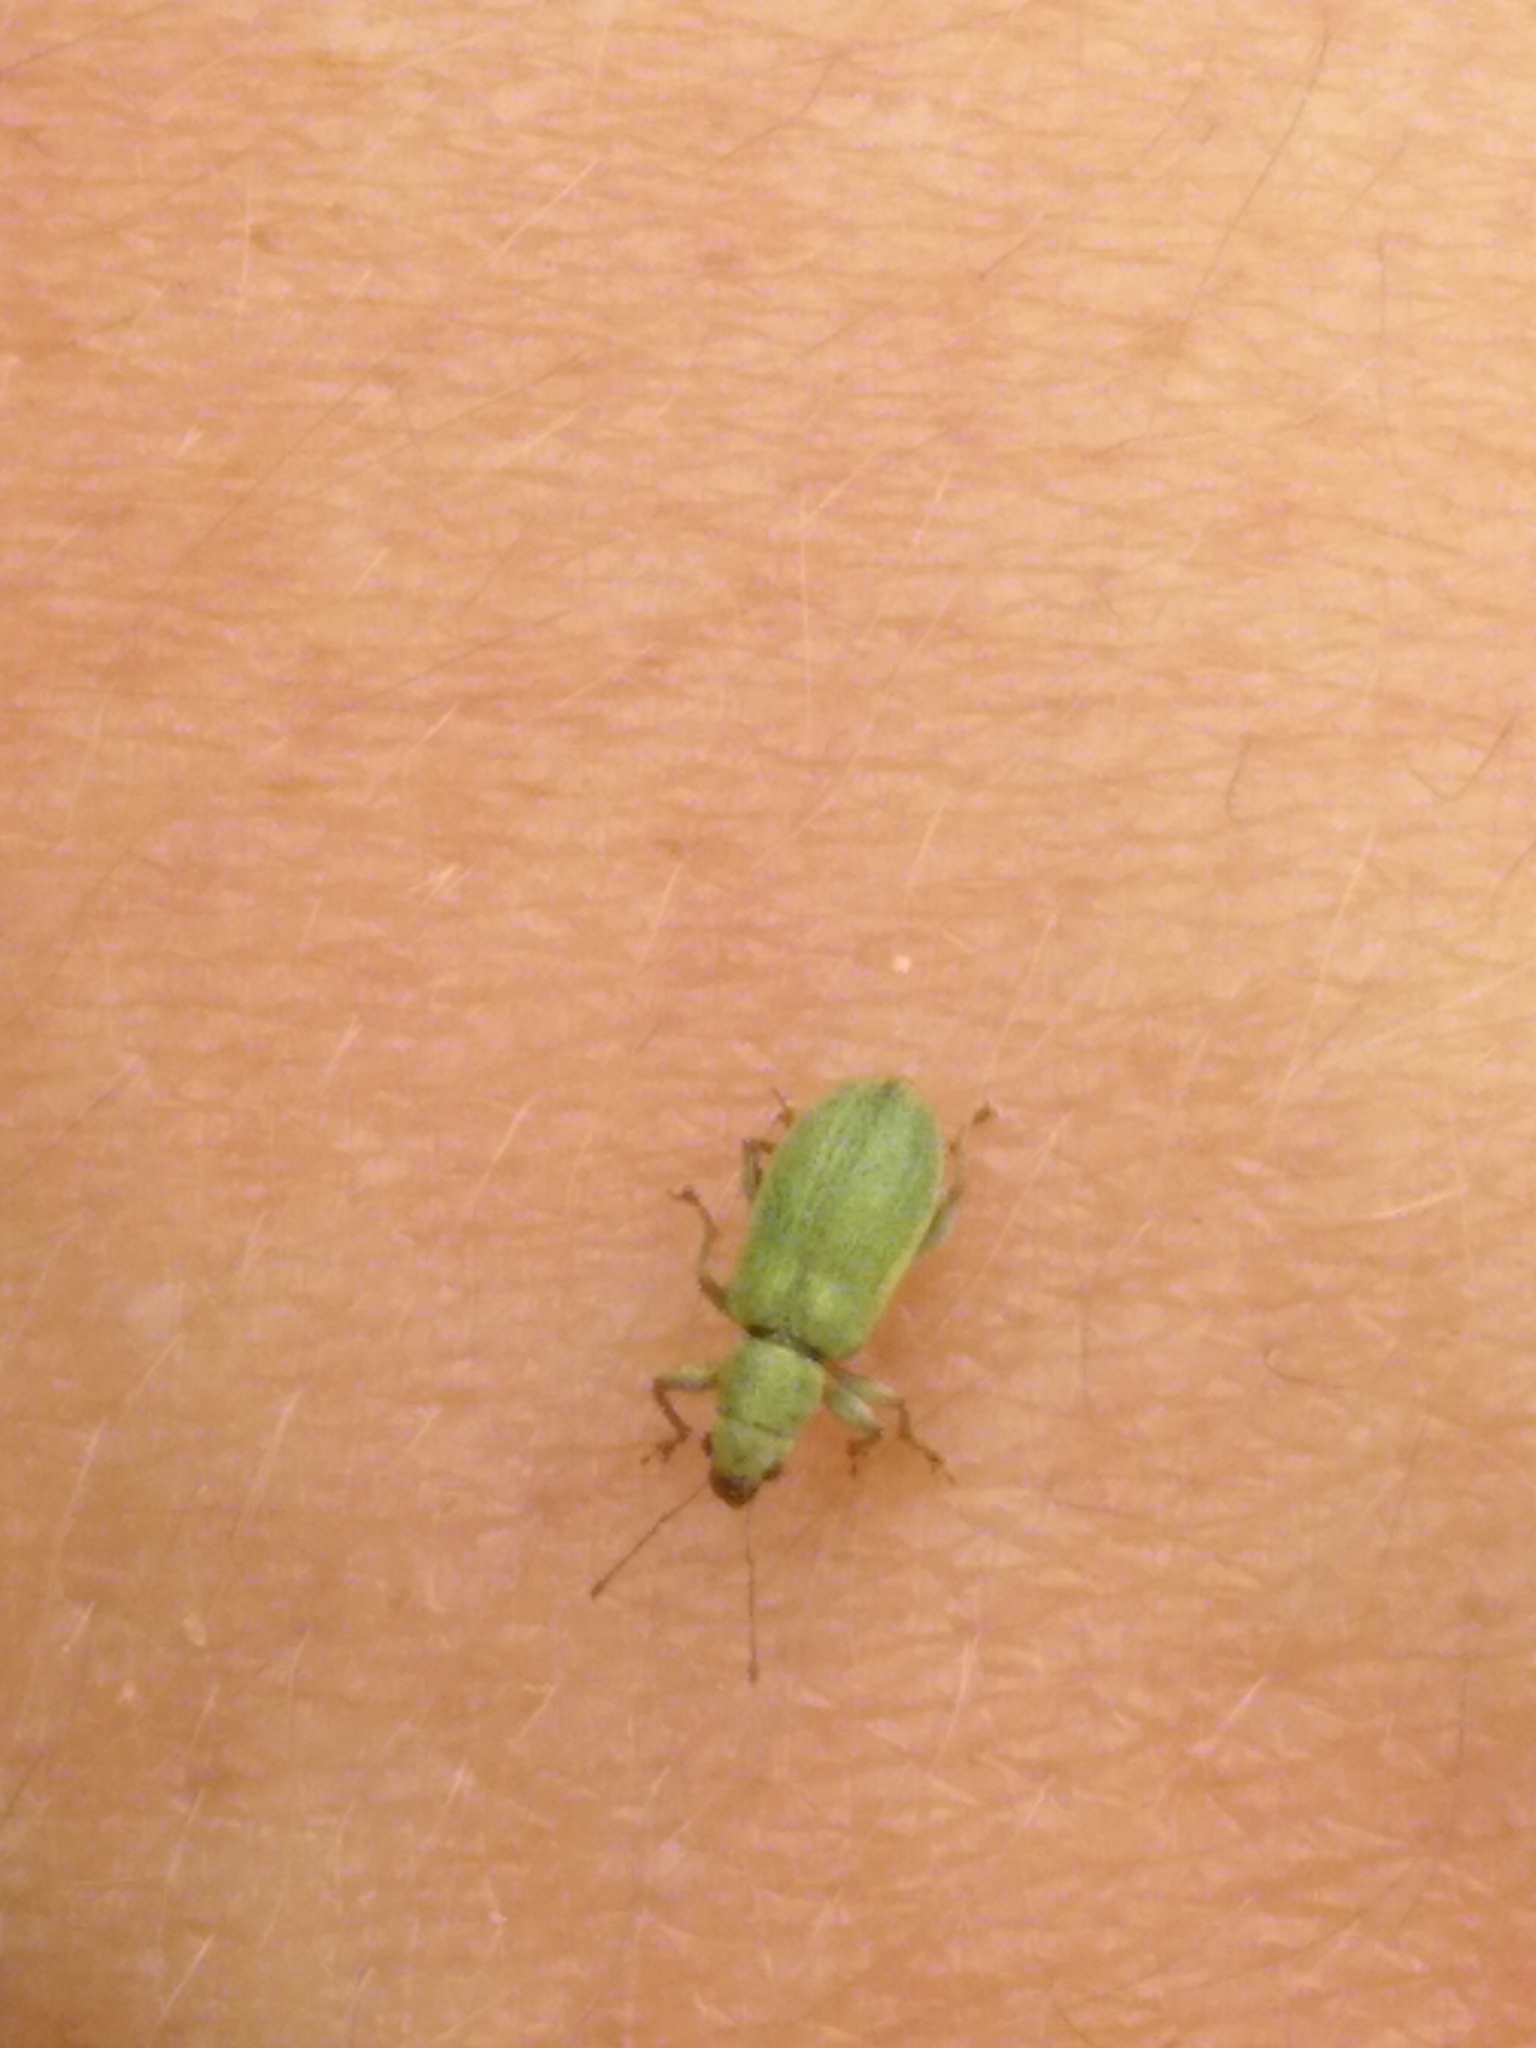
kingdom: Animalia
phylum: Arthropoda
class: Insecta
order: Coleoptera
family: Curculionidae
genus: Pachyrhinus
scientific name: Pachyrhinus lethierryi
